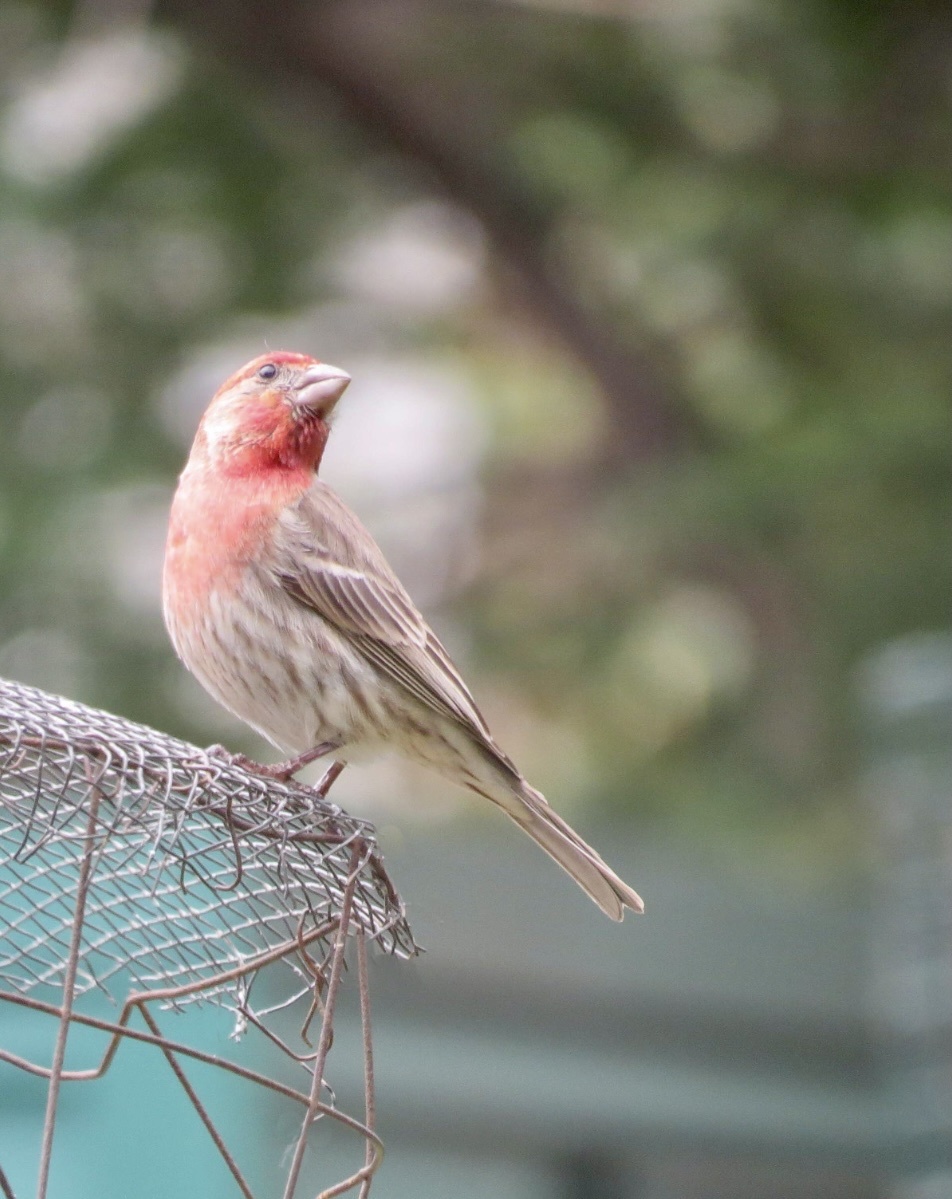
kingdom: Animalia
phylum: Chordata
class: Aves
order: Passeriformes
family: Fringillidae
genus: Haemorhous
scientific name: Haemorhous mexicanus
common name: House finch
